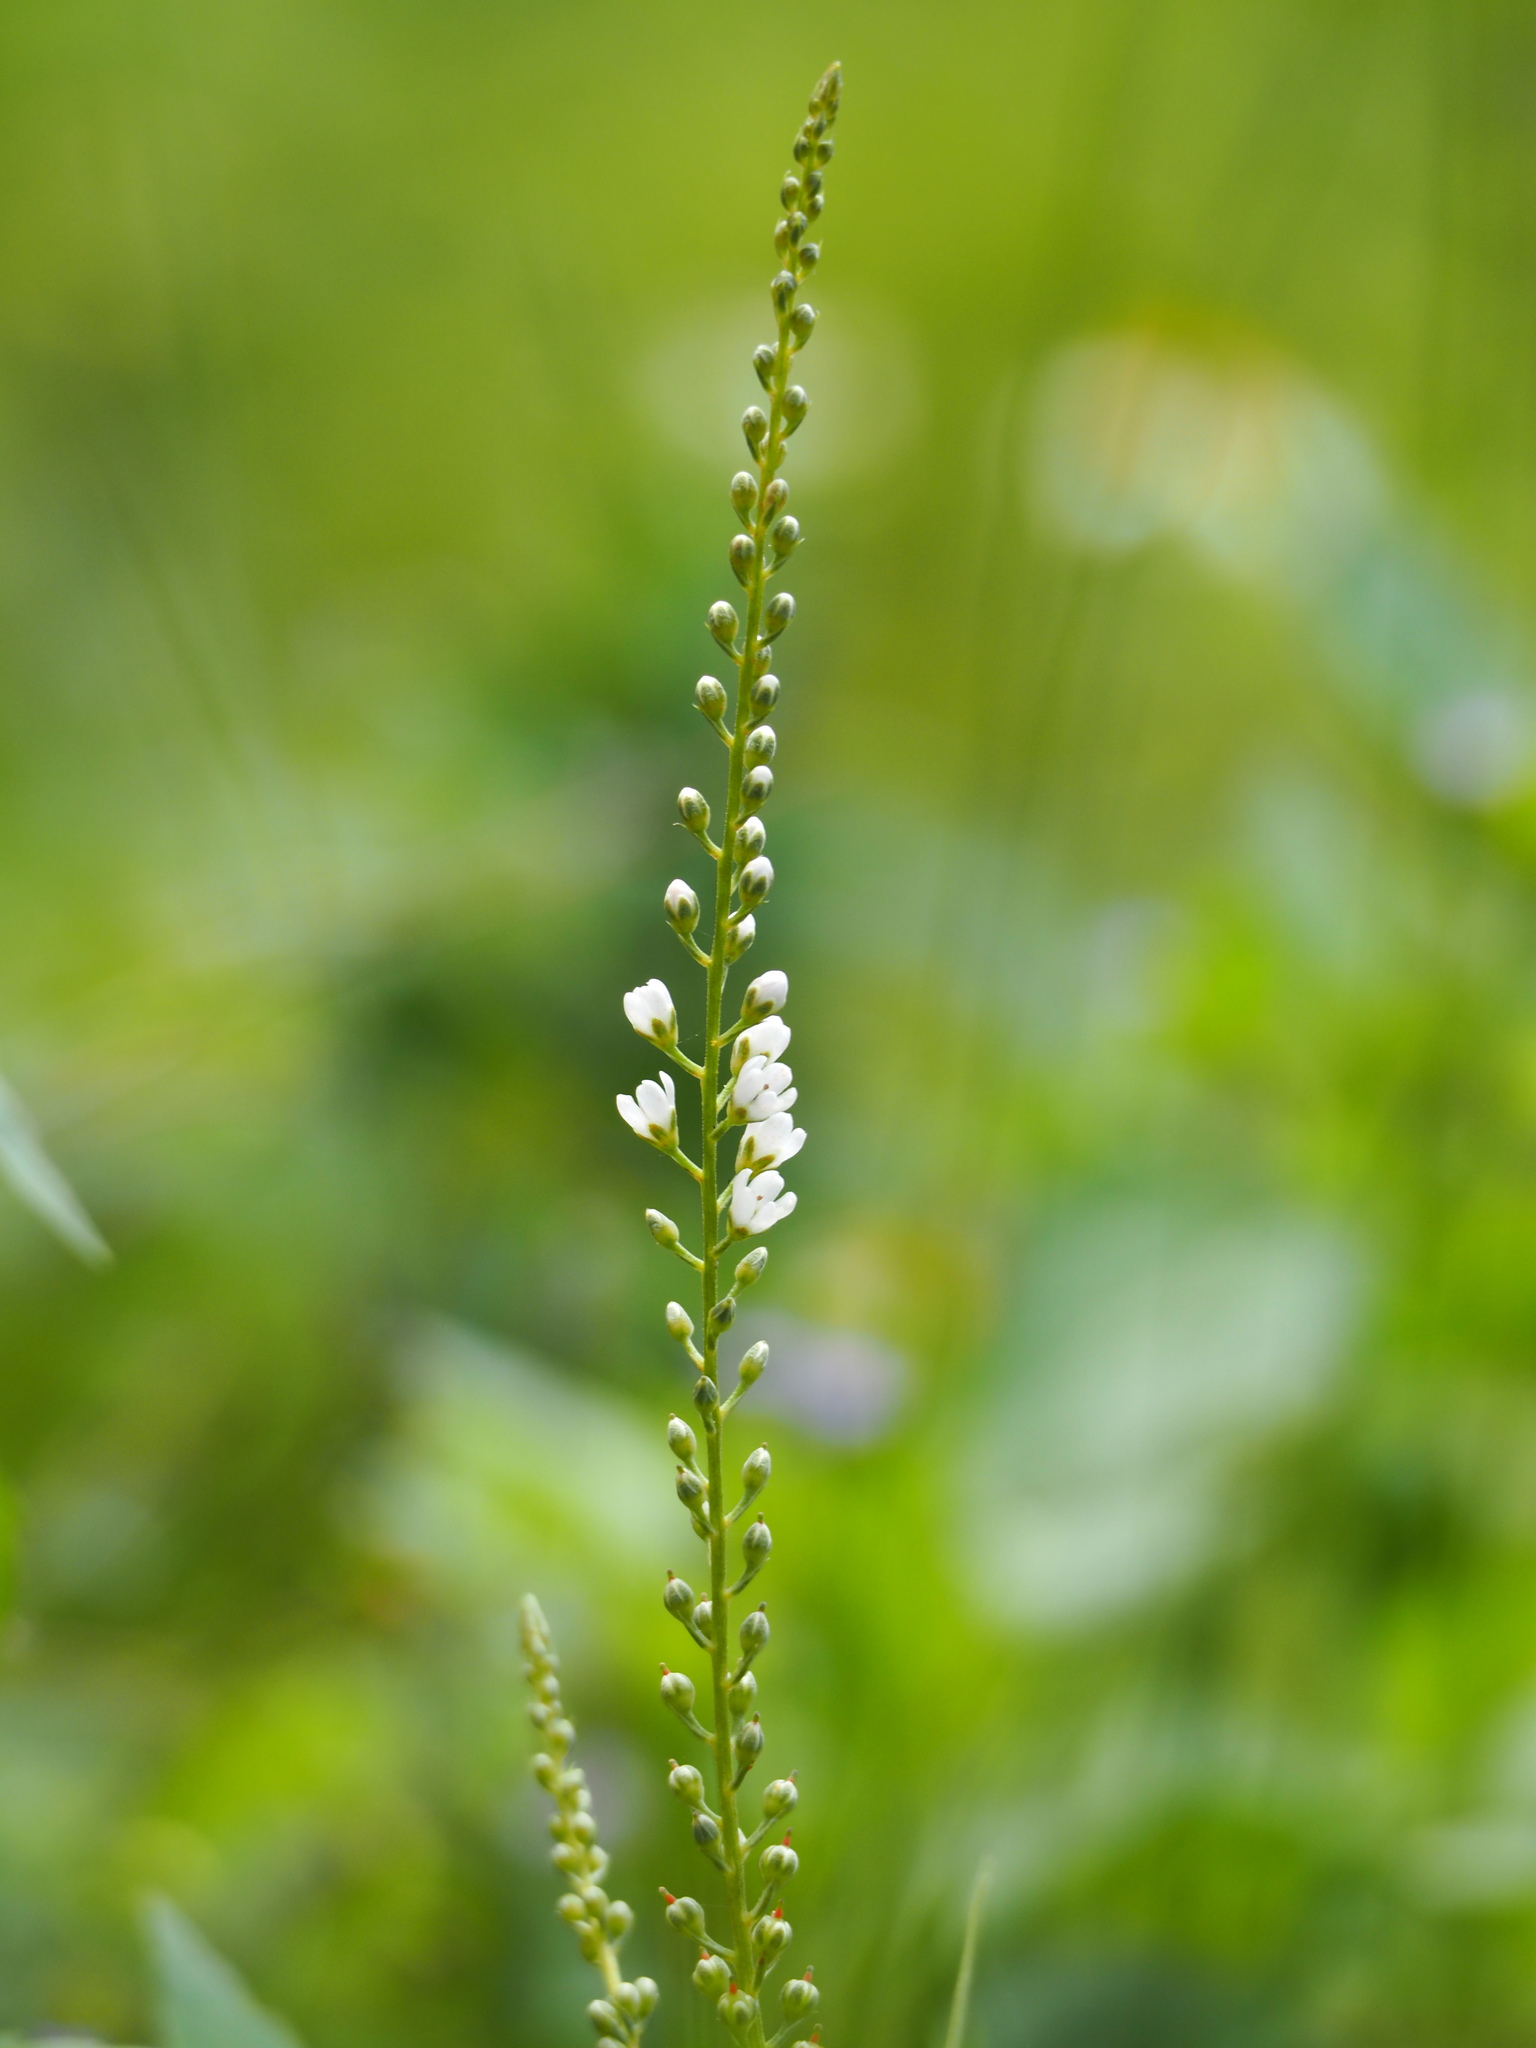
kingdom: Plantae
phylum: Tracheophyta
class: Magnoliopsida
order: Ericales
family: Primulaceae
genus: Lysimachia
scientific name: Lysimachia fortunei
